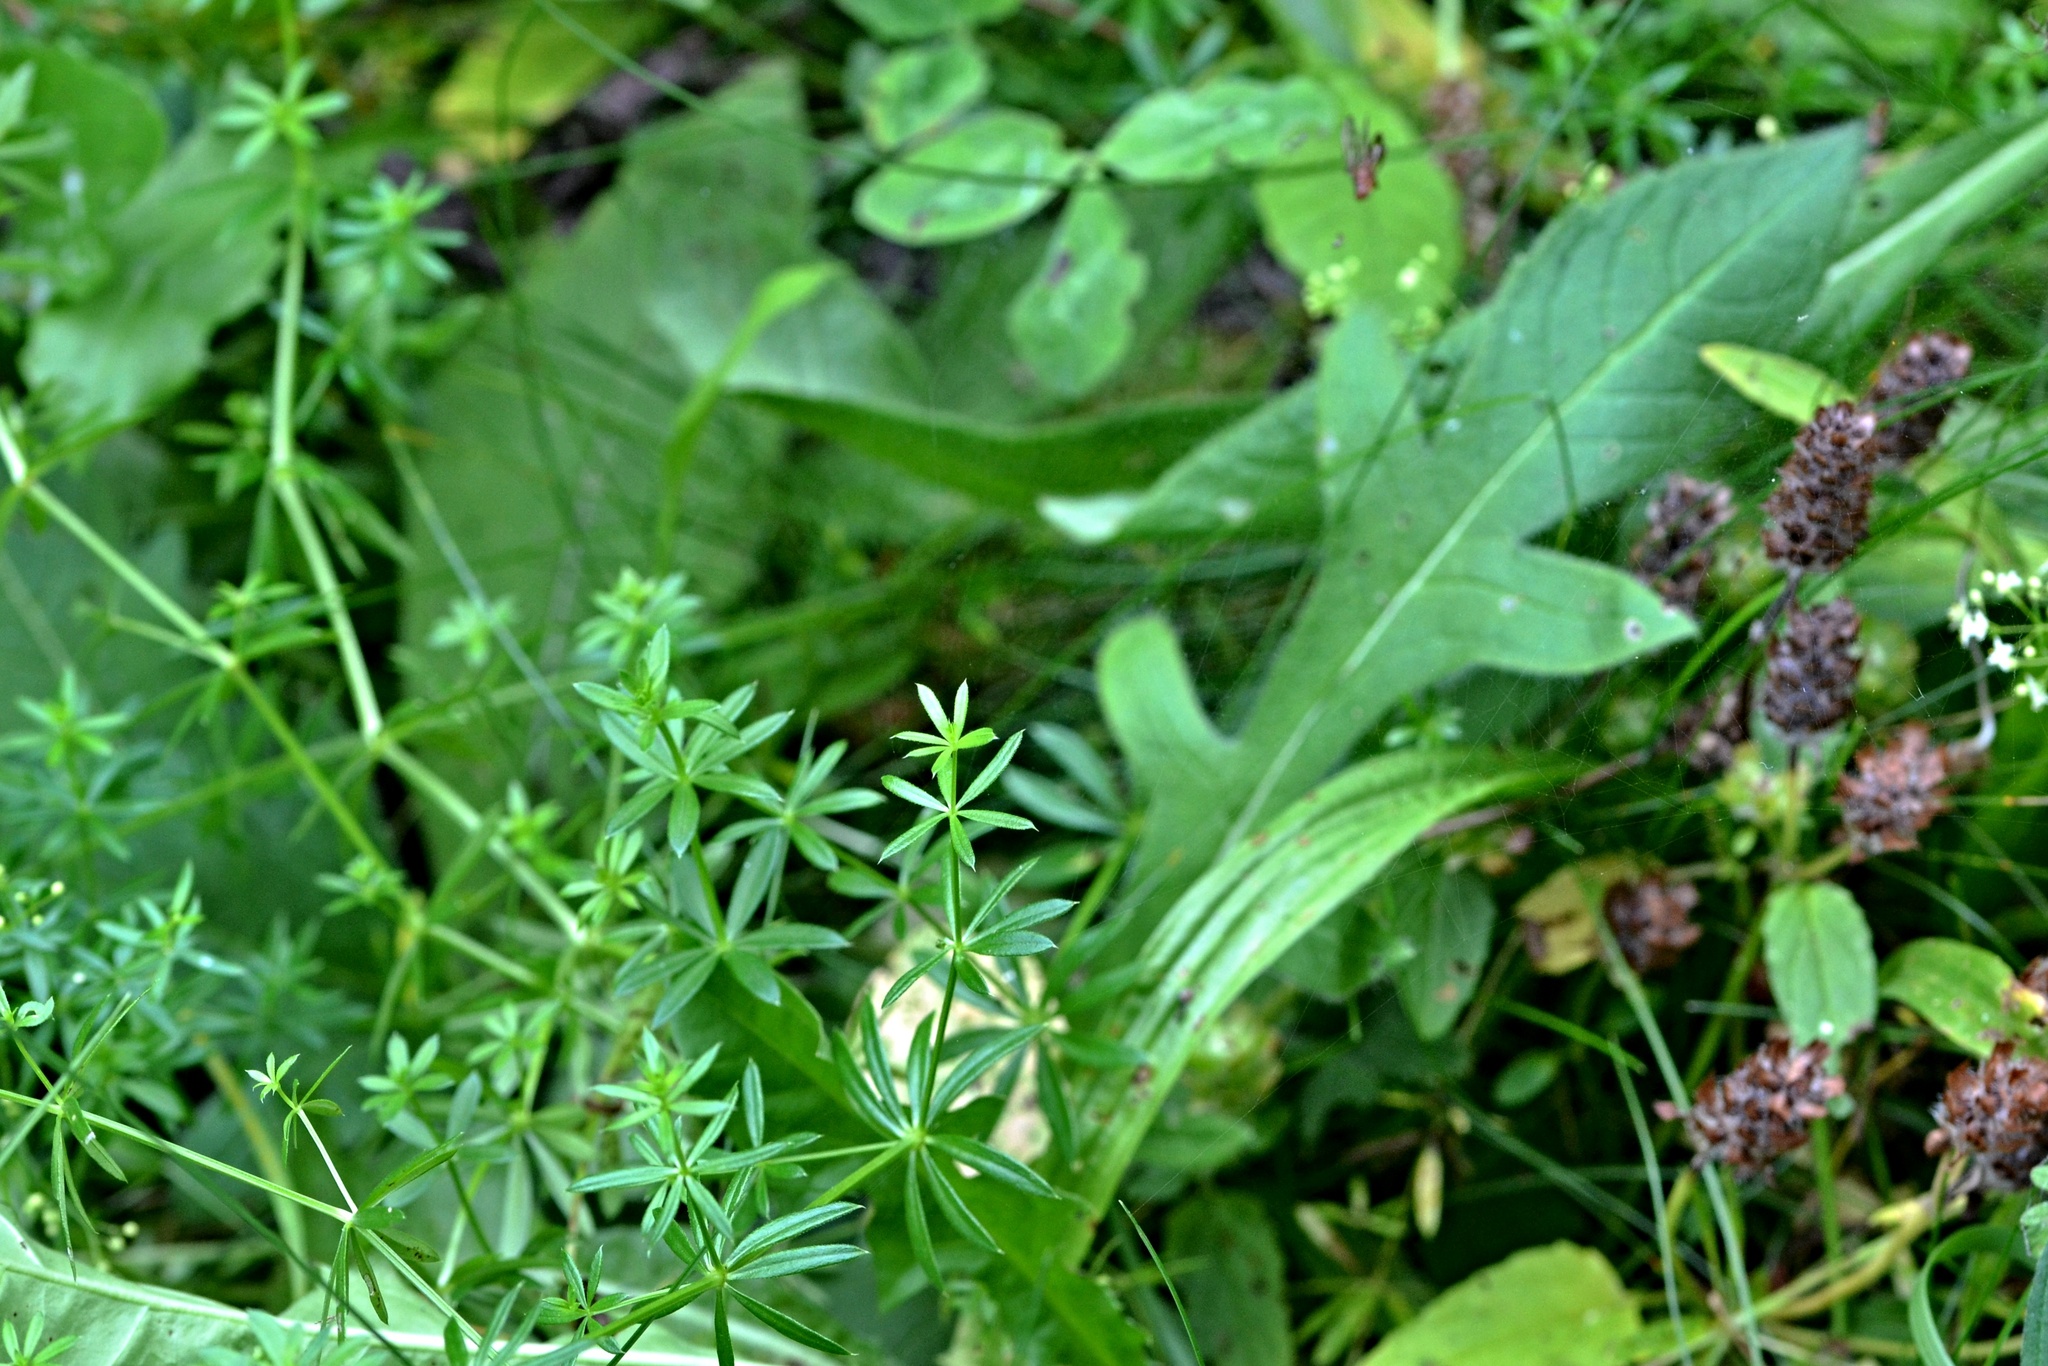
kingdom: Plantae
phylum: Tracheophyta
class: Magnoliopsida
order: Dipsacales
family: Caprifoliaceae
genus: Knautia
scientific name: Knautia arvensis
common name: Field scabiosa
